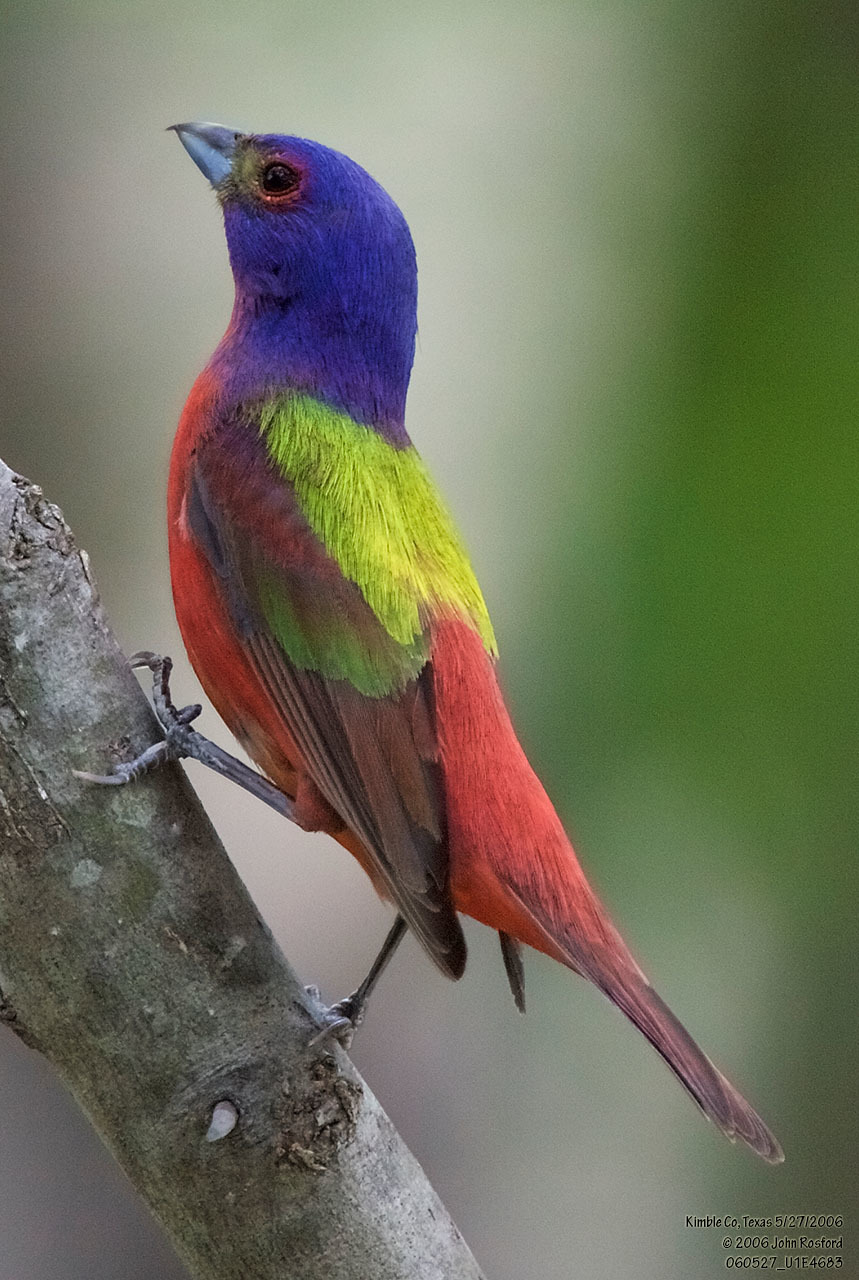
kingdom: Animalia
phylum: Chordata
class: Aves
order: Passeriformes
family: Cardinalidae
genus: Passerina
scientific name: Passerina ciris
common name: Painted bunting
